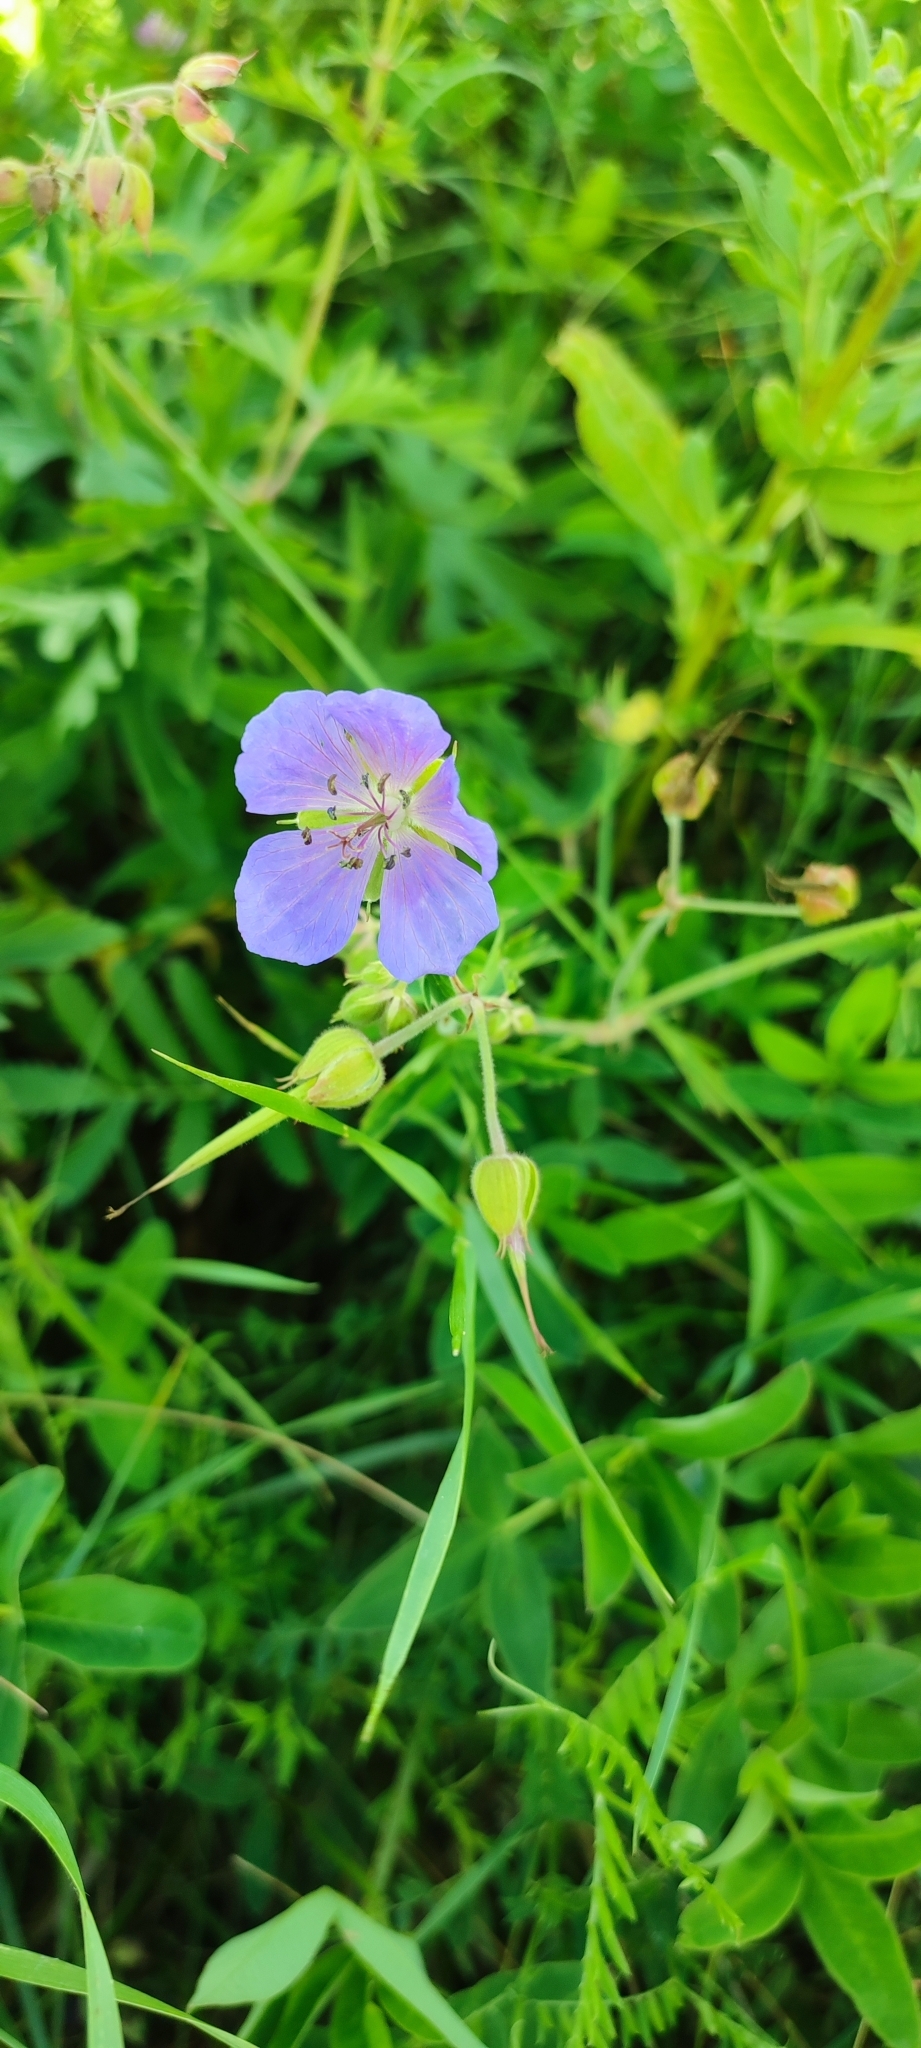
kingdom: Plantae
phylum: Tracheophyta
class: Magnoliopsida
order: Geraniales
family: Geraniaceae
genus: Geranium
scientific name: Geranium pratense
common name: Meadow crane's-bill
